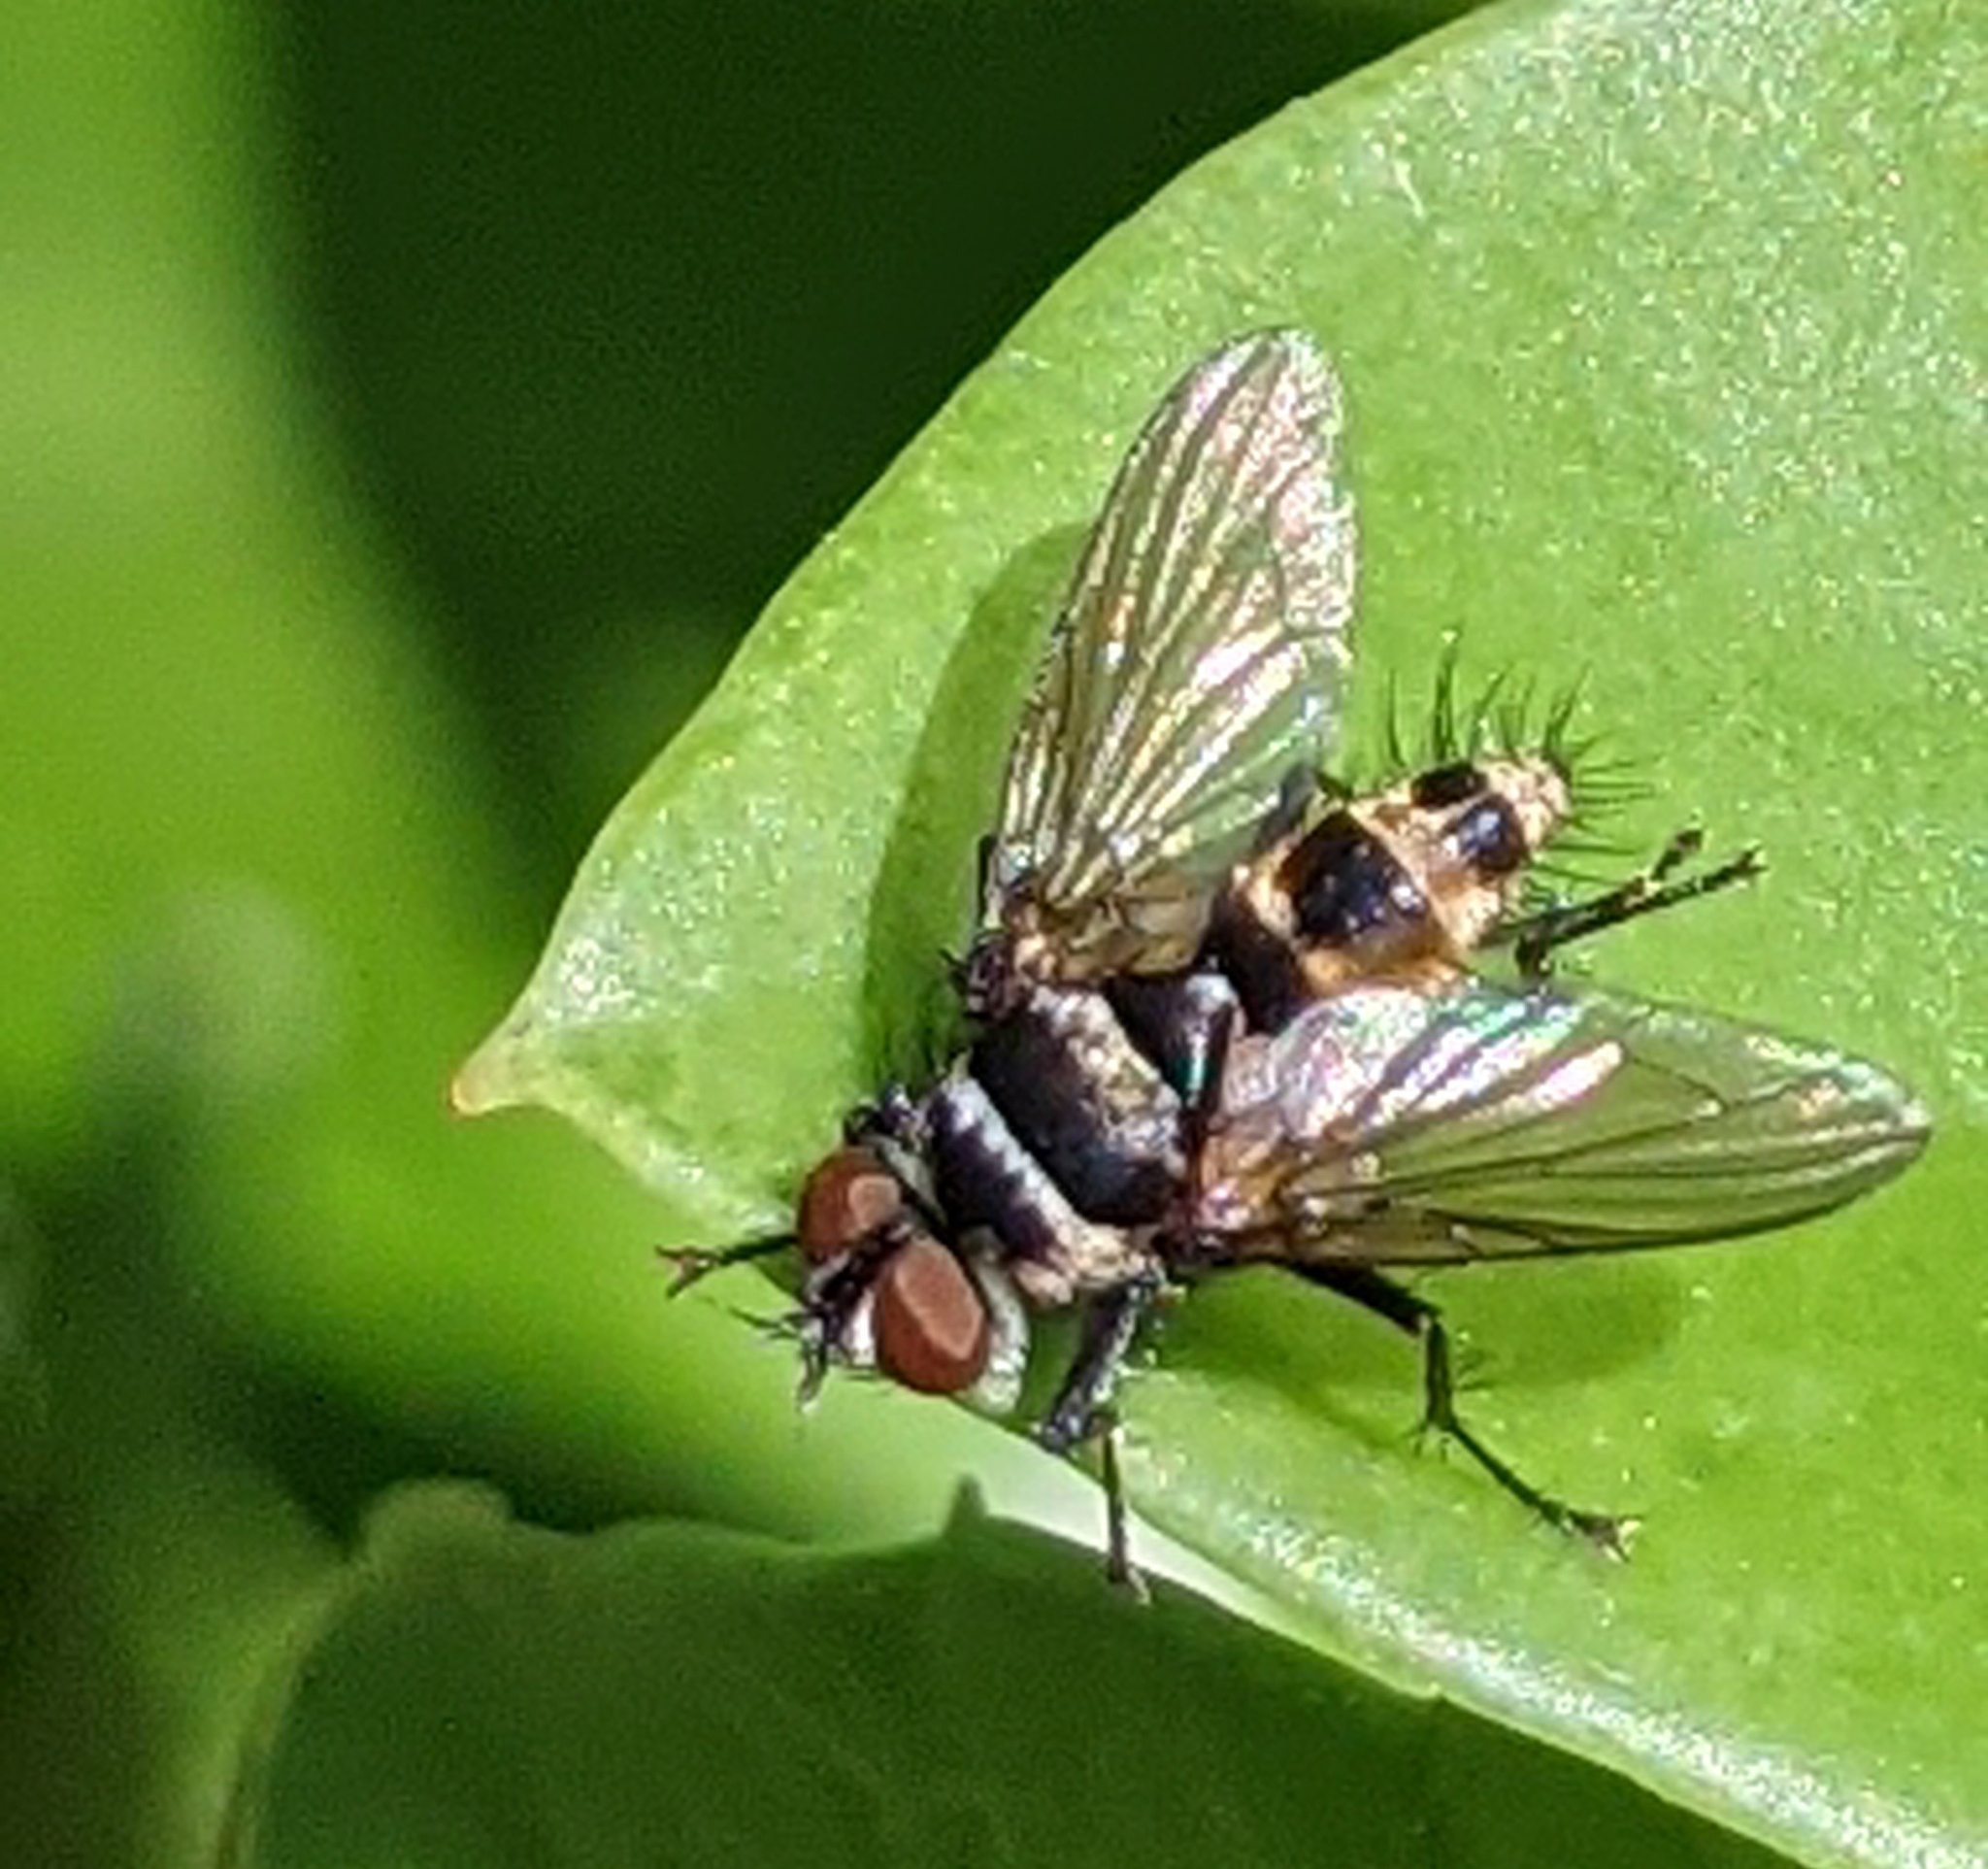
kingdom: Animalia
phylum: Arthropoda
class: Insecta
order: Diptera
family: Tachinidae
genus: Trigonospila
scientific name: Trigonospila brevifacies
